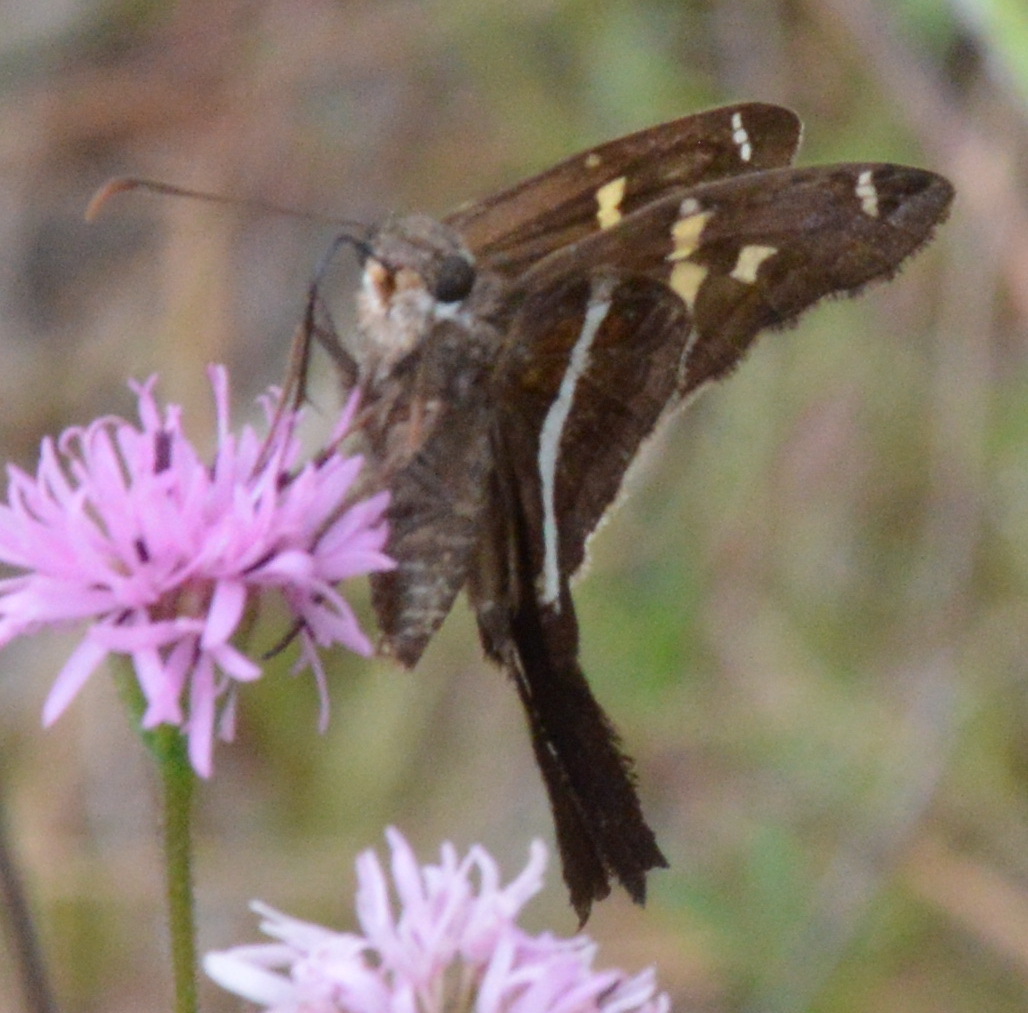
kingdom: Animalia
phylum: Arthropoda
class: Insecta
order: Lepidoptera
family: Hesperiidae
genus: Chioides
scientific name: Chioides catillus
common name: Silverbanded skipper
